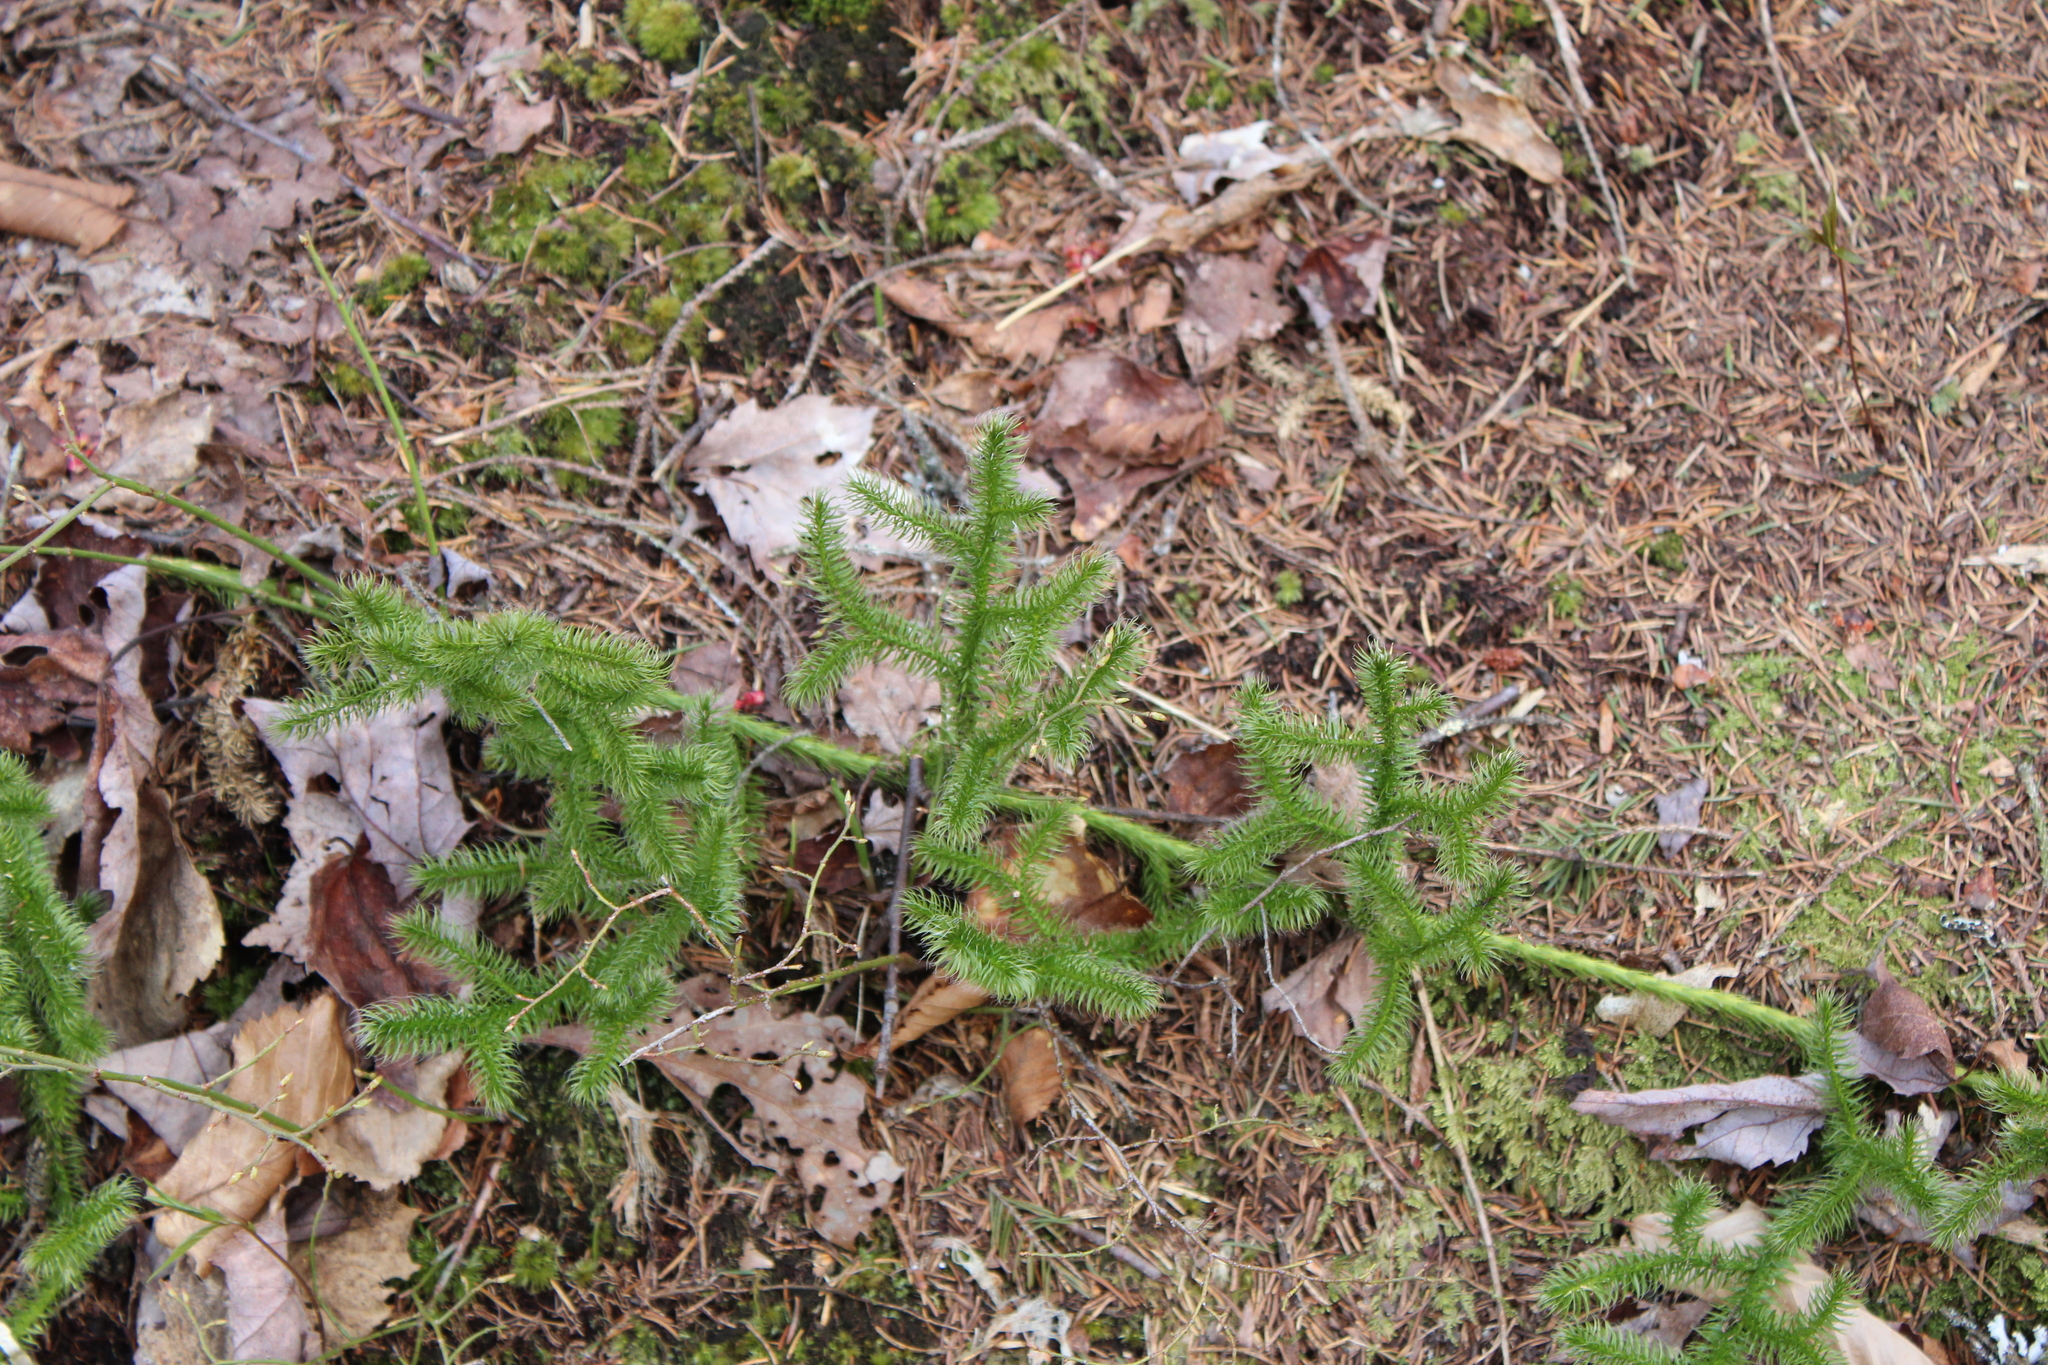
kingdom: Plantae
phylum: Tracheophyta
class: Lycopodiopsida
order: Lycopodiales
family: Lycopodiaceae
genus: Lycopodium
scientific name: Lycopodium clavatum
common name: Stag's-horn clubmoss
